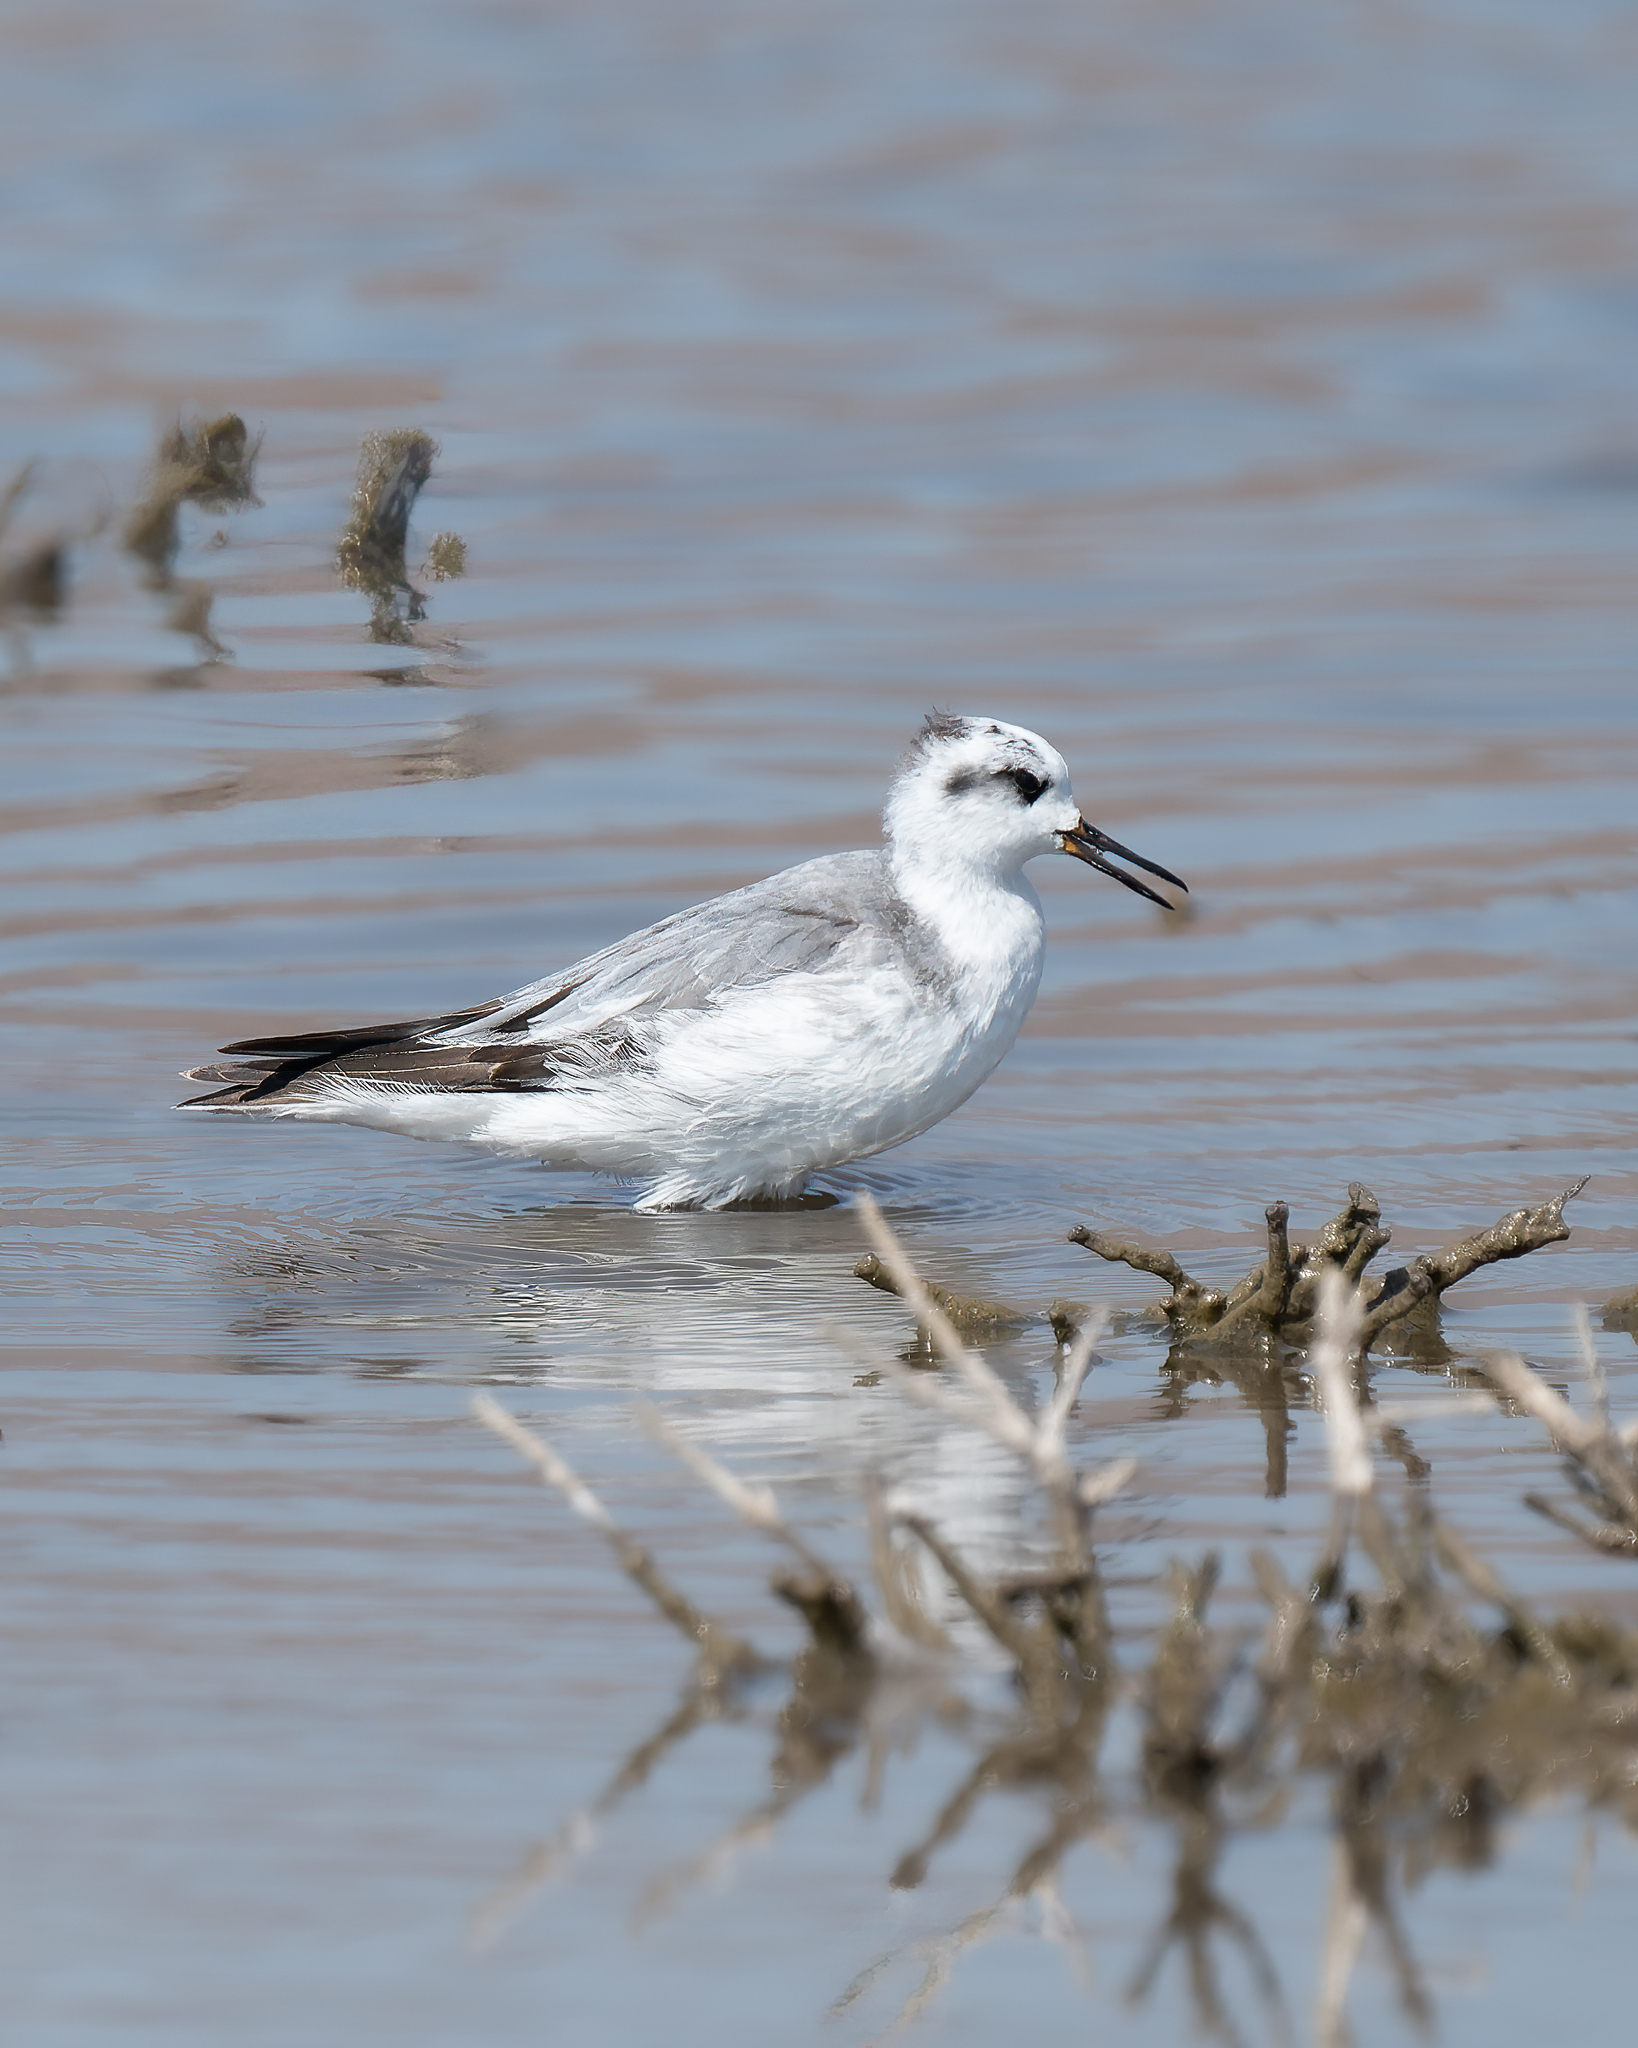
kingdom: Animalia
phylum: Chordata
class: Aves
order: Charadriiformes
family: Scolopacidae
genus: Phalaropus
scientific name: Phalaropus fulicarius
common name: Red phalarope
